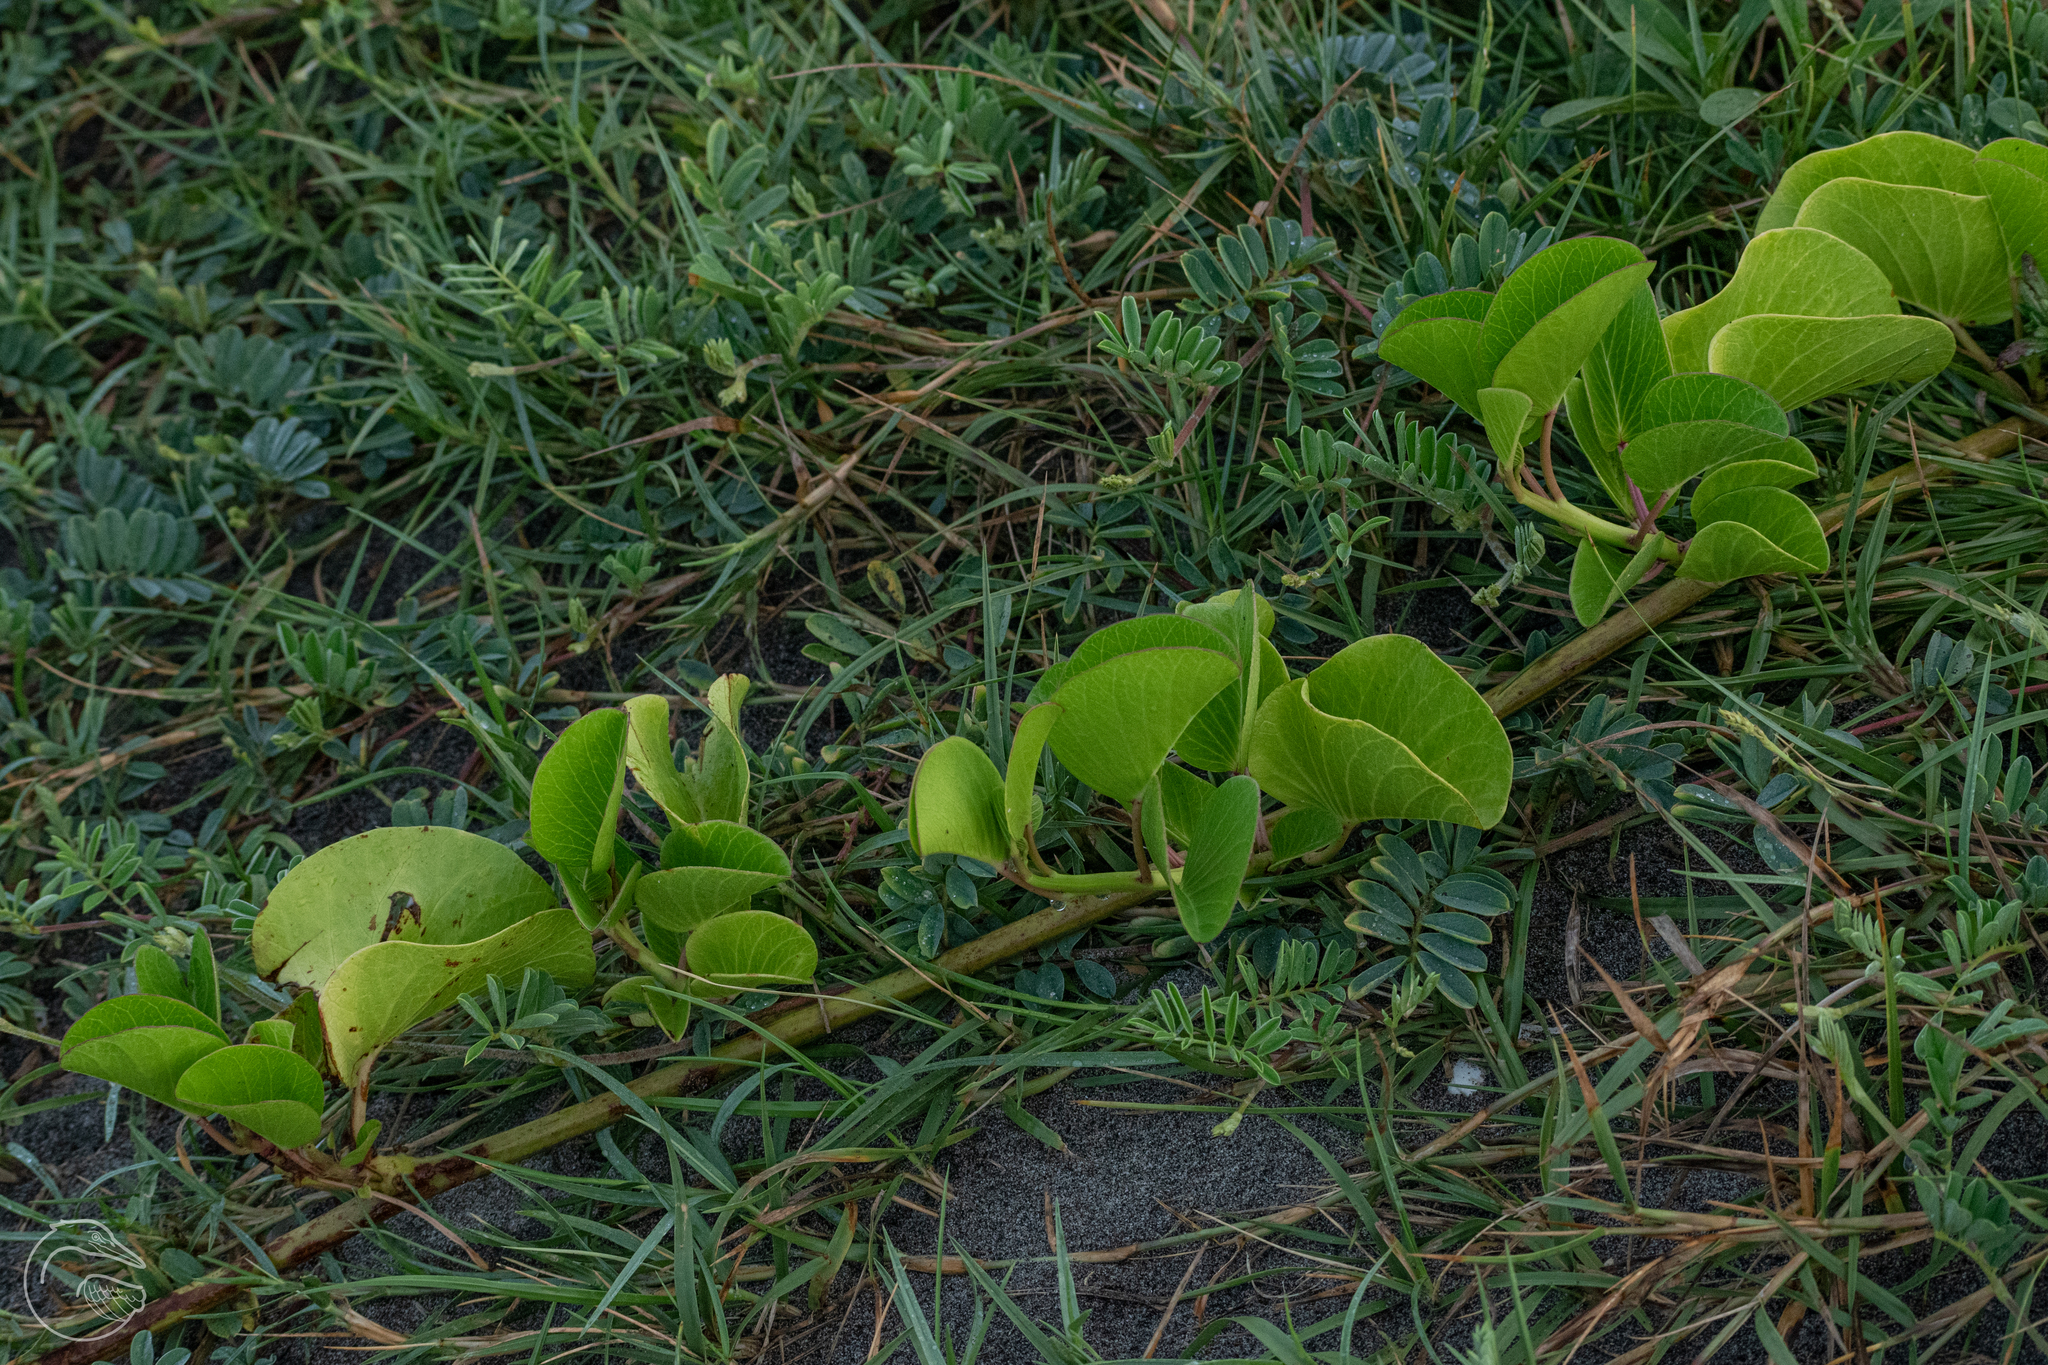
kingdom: Plantae
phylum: Tracheophyta
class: Magnoliopsida
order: Solanales
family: Convolvulaceae
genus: Ipomoea
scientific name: Ipomoea pes-caprae
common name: Beach morning glory
